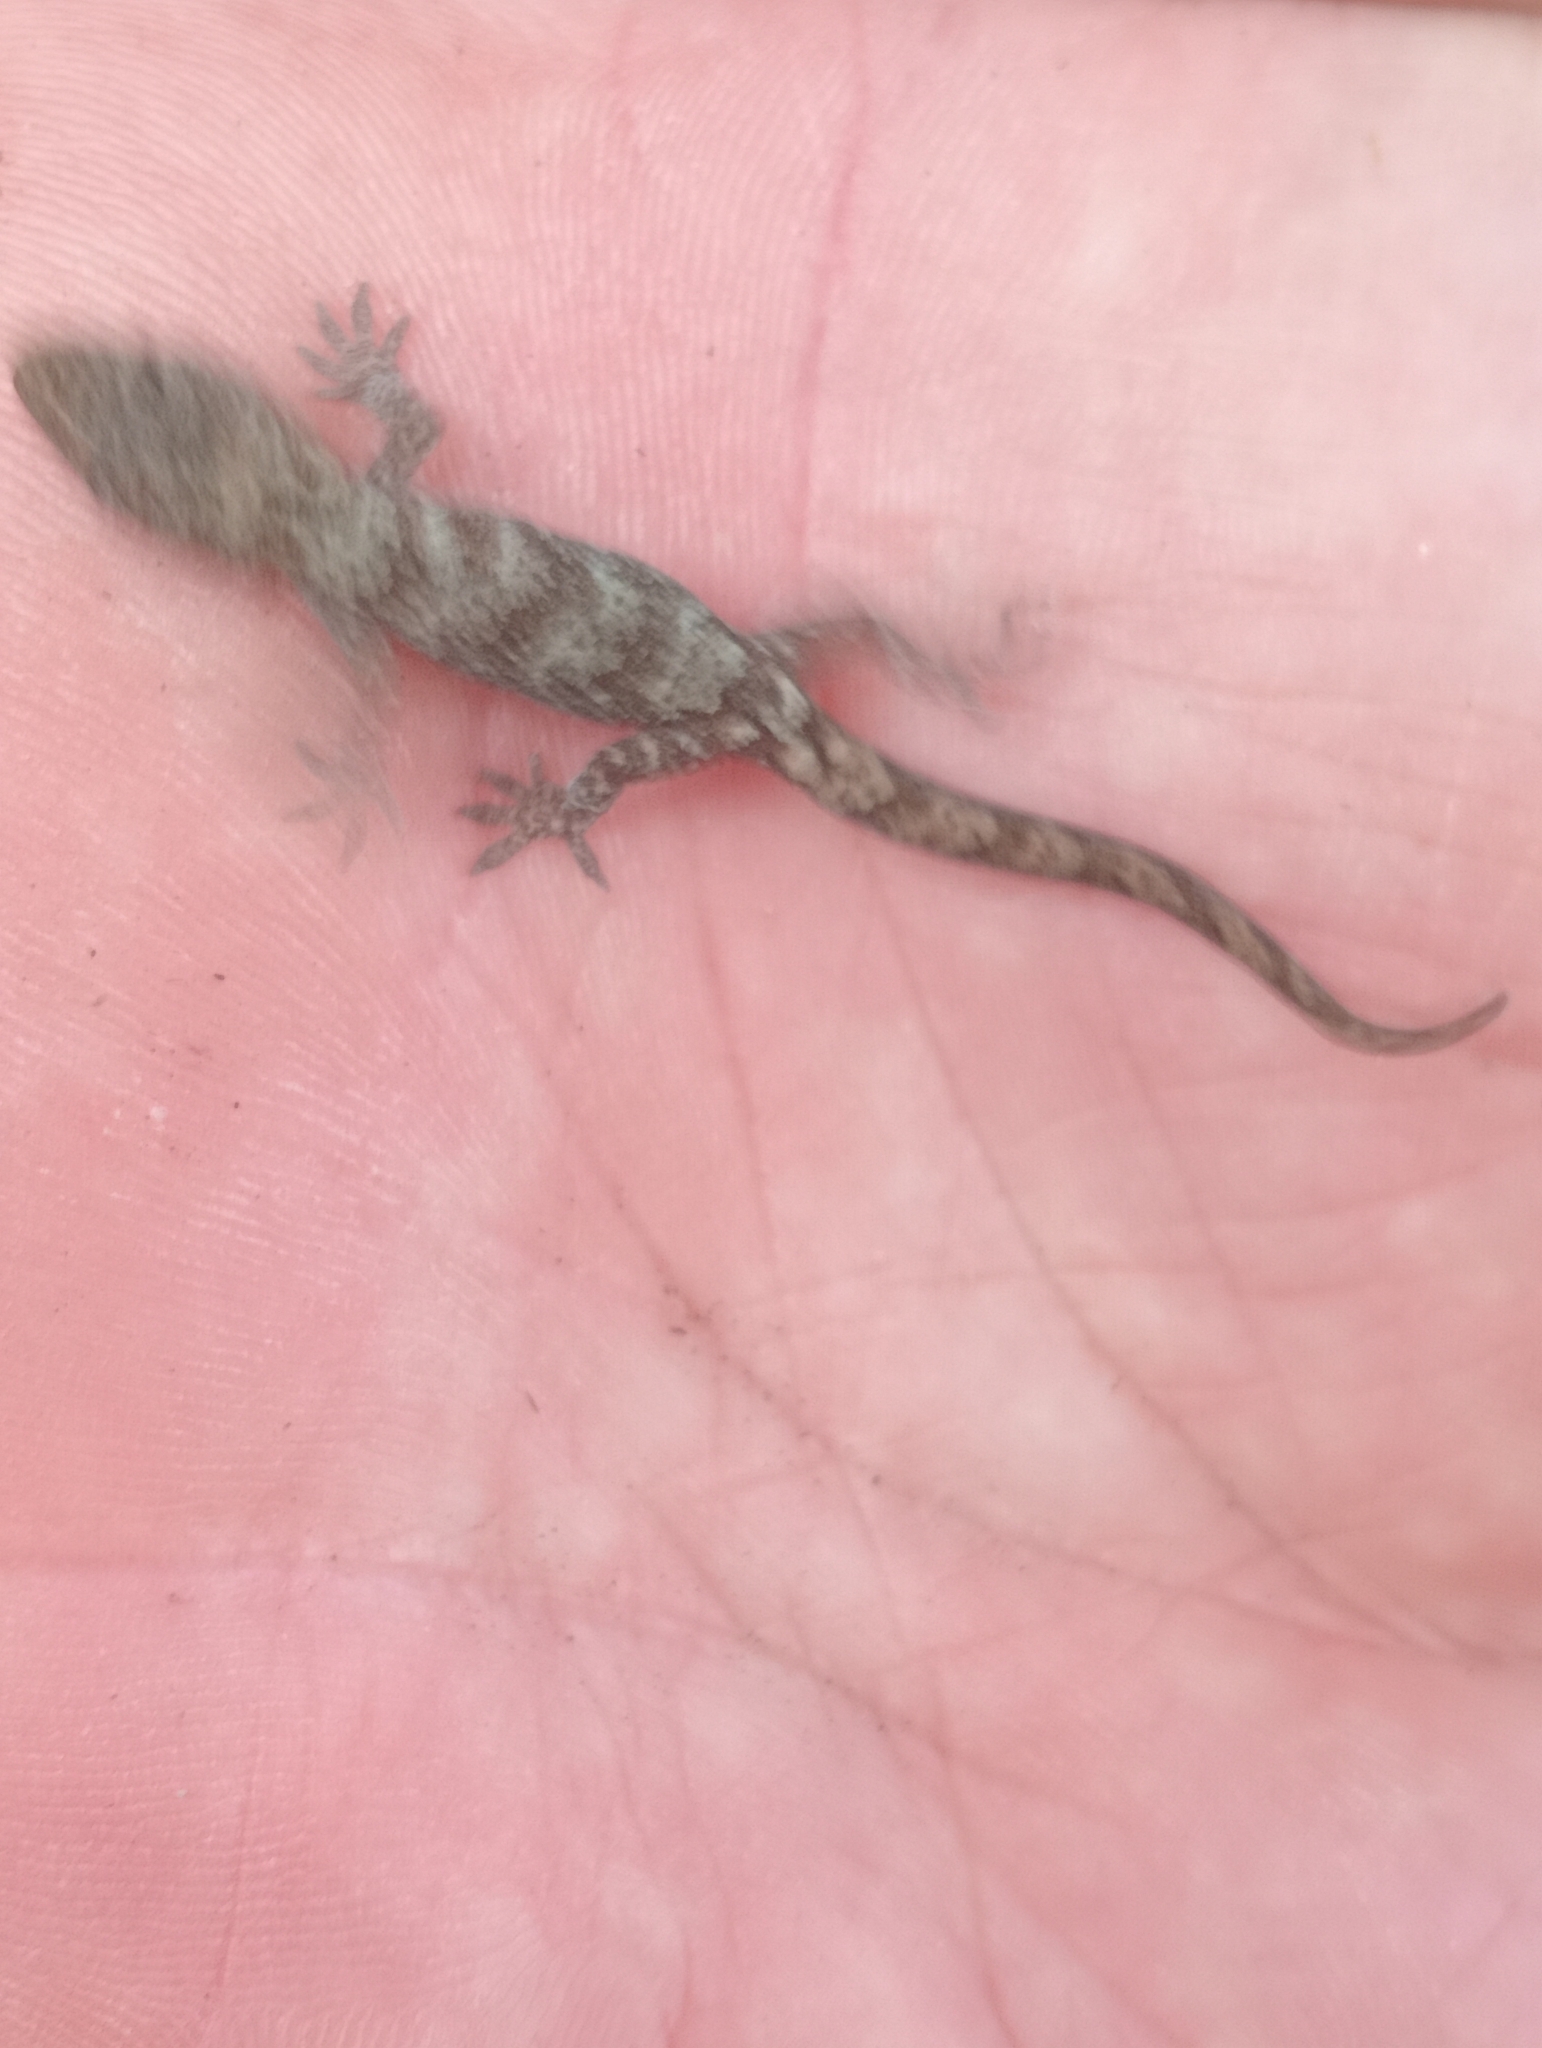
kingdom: Animalia
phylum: Chordata
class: Squamata
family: Diplodactylidae
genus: Woodworthia
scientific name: Woodworthia
